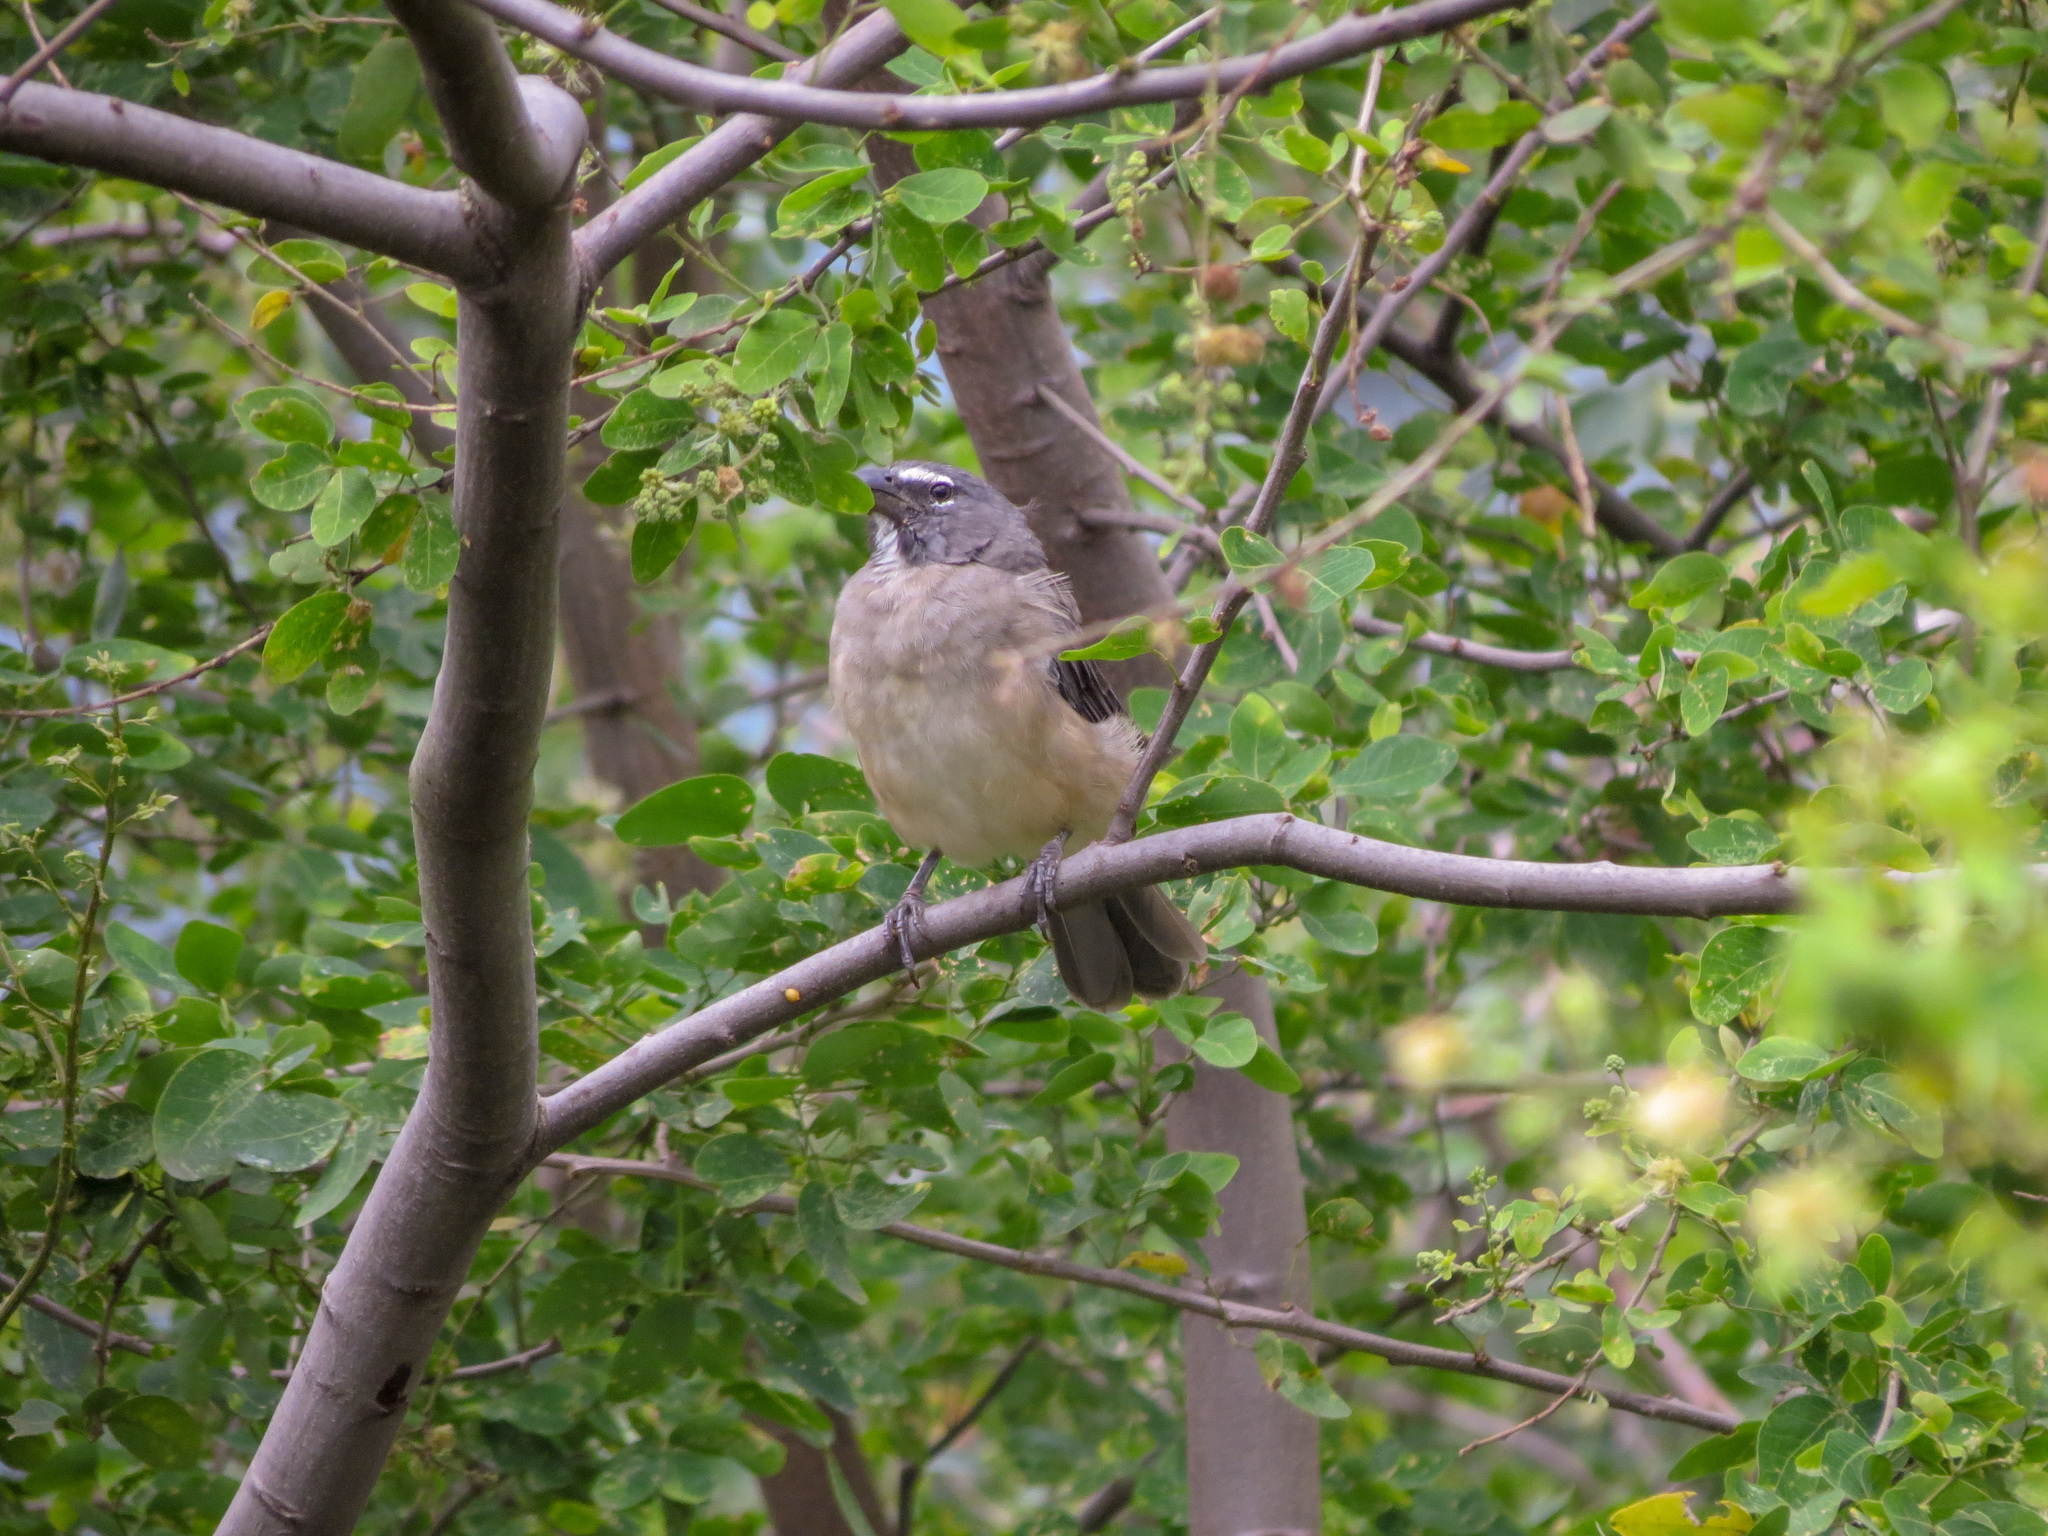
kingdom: Animalia
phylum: Chordata
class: Aves
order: Passeriformes
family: Thraupidae
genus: Saltator
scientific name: Saltator olivascens
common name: Caribbean grey saltator
